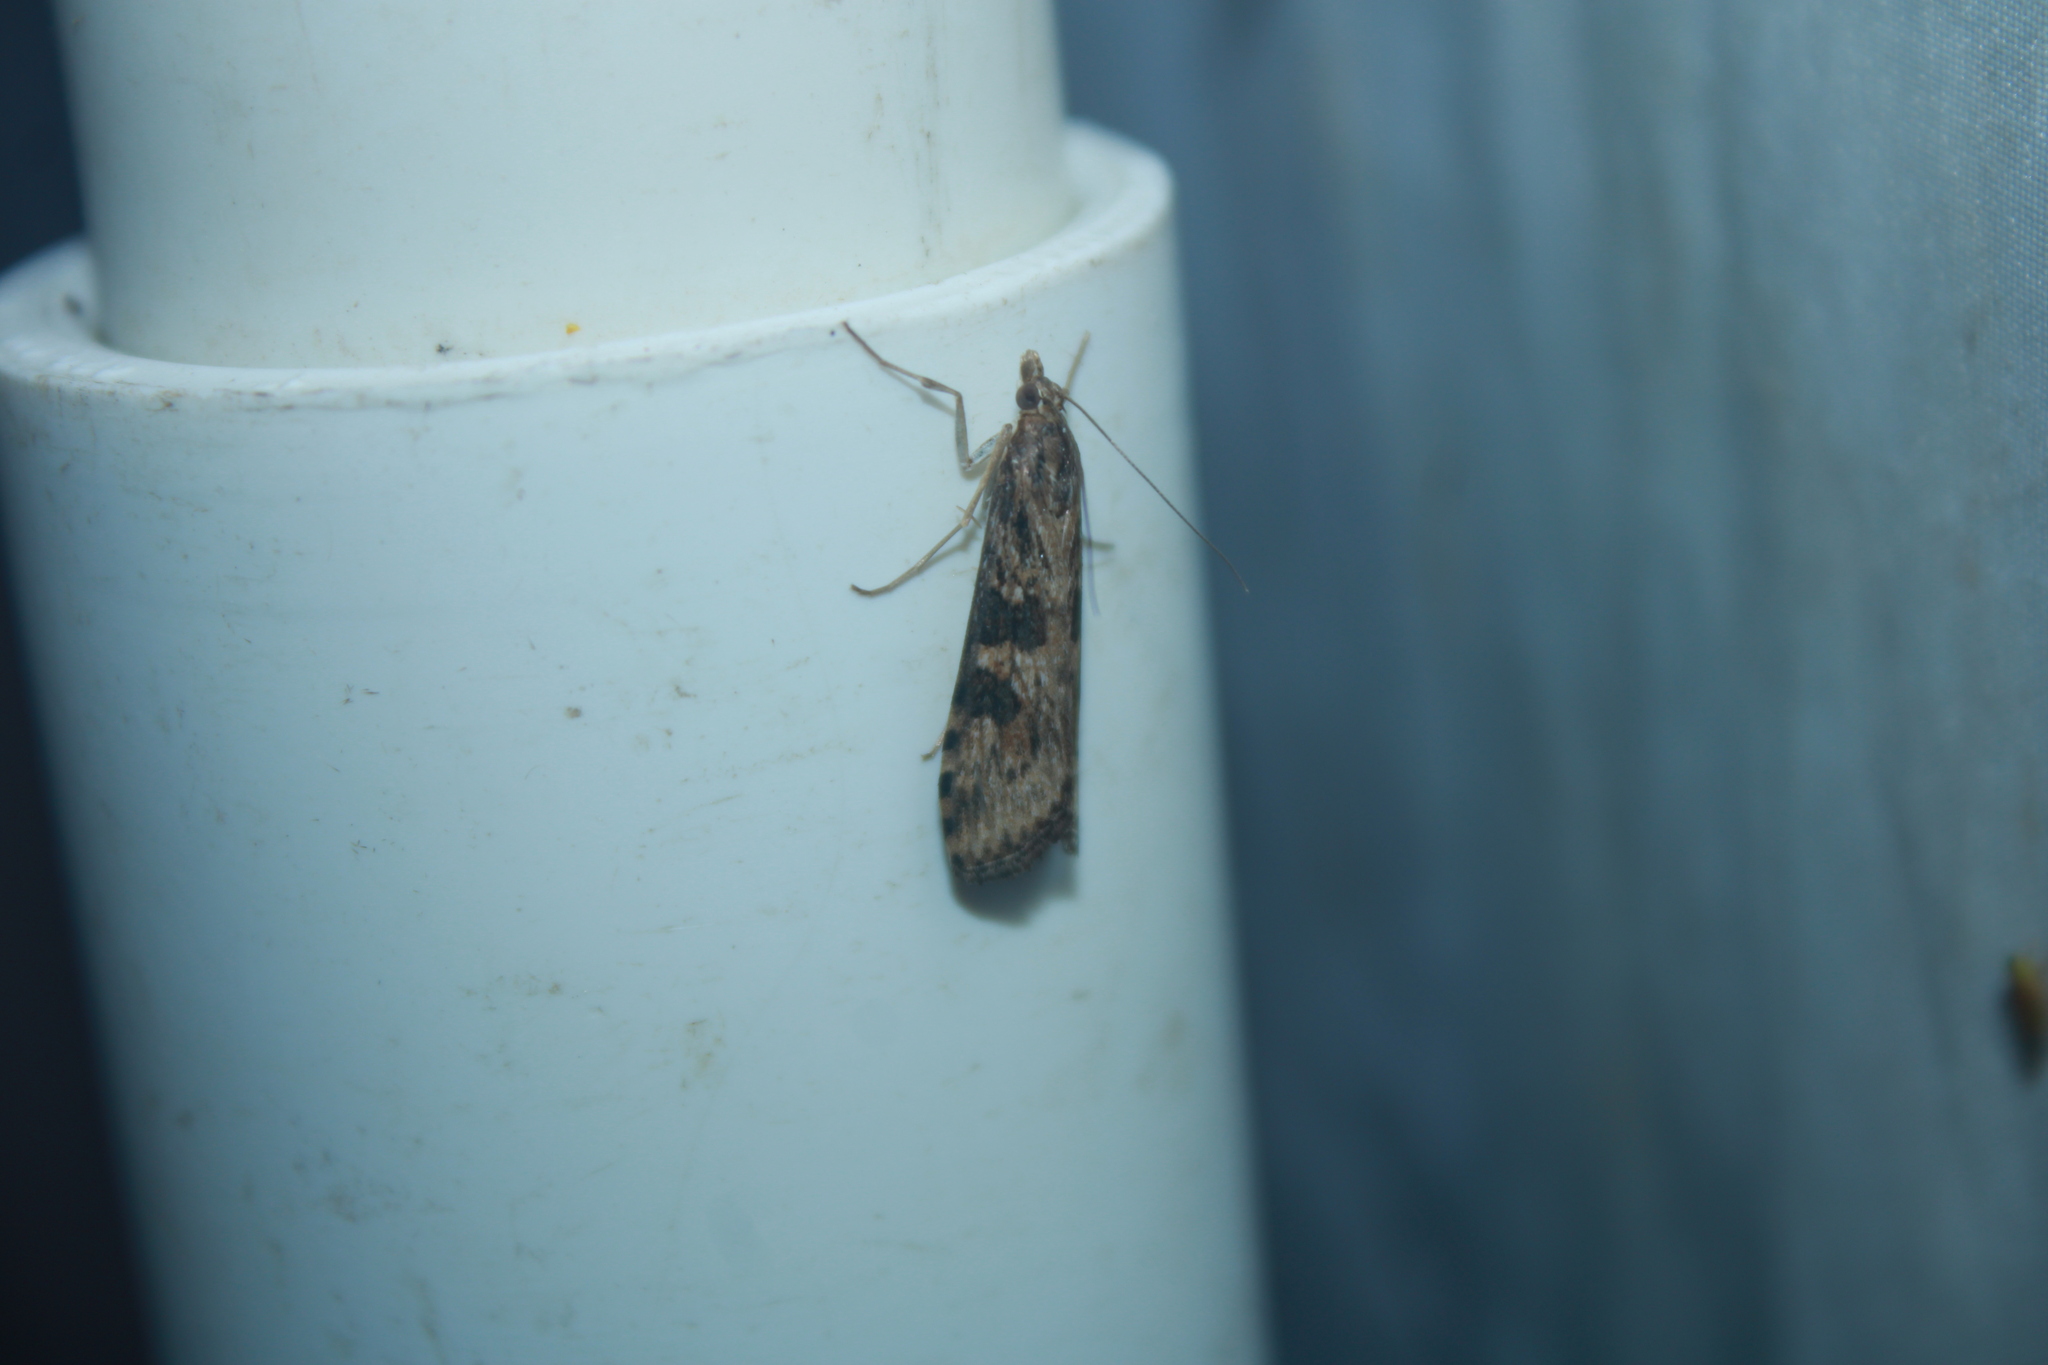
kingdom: Animalia
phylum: Arthropoda
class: Insecta
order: Lepidoptera
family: Crambidae
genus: Nomophila
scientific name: Nomophila nearctica
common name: American rush veneer
